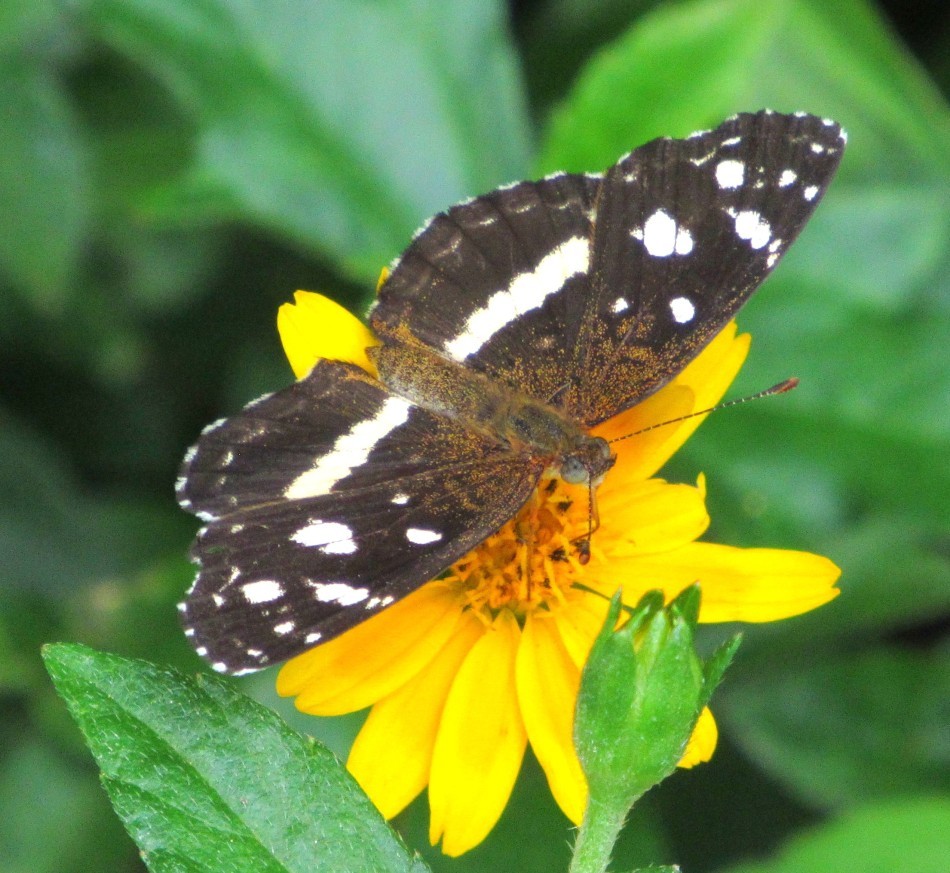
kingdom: Animalia
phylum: Arthropoda
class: Insecta
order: Lepidoptera
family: Nymphalidae
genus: Ortilia
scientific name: Ortilia ithra
